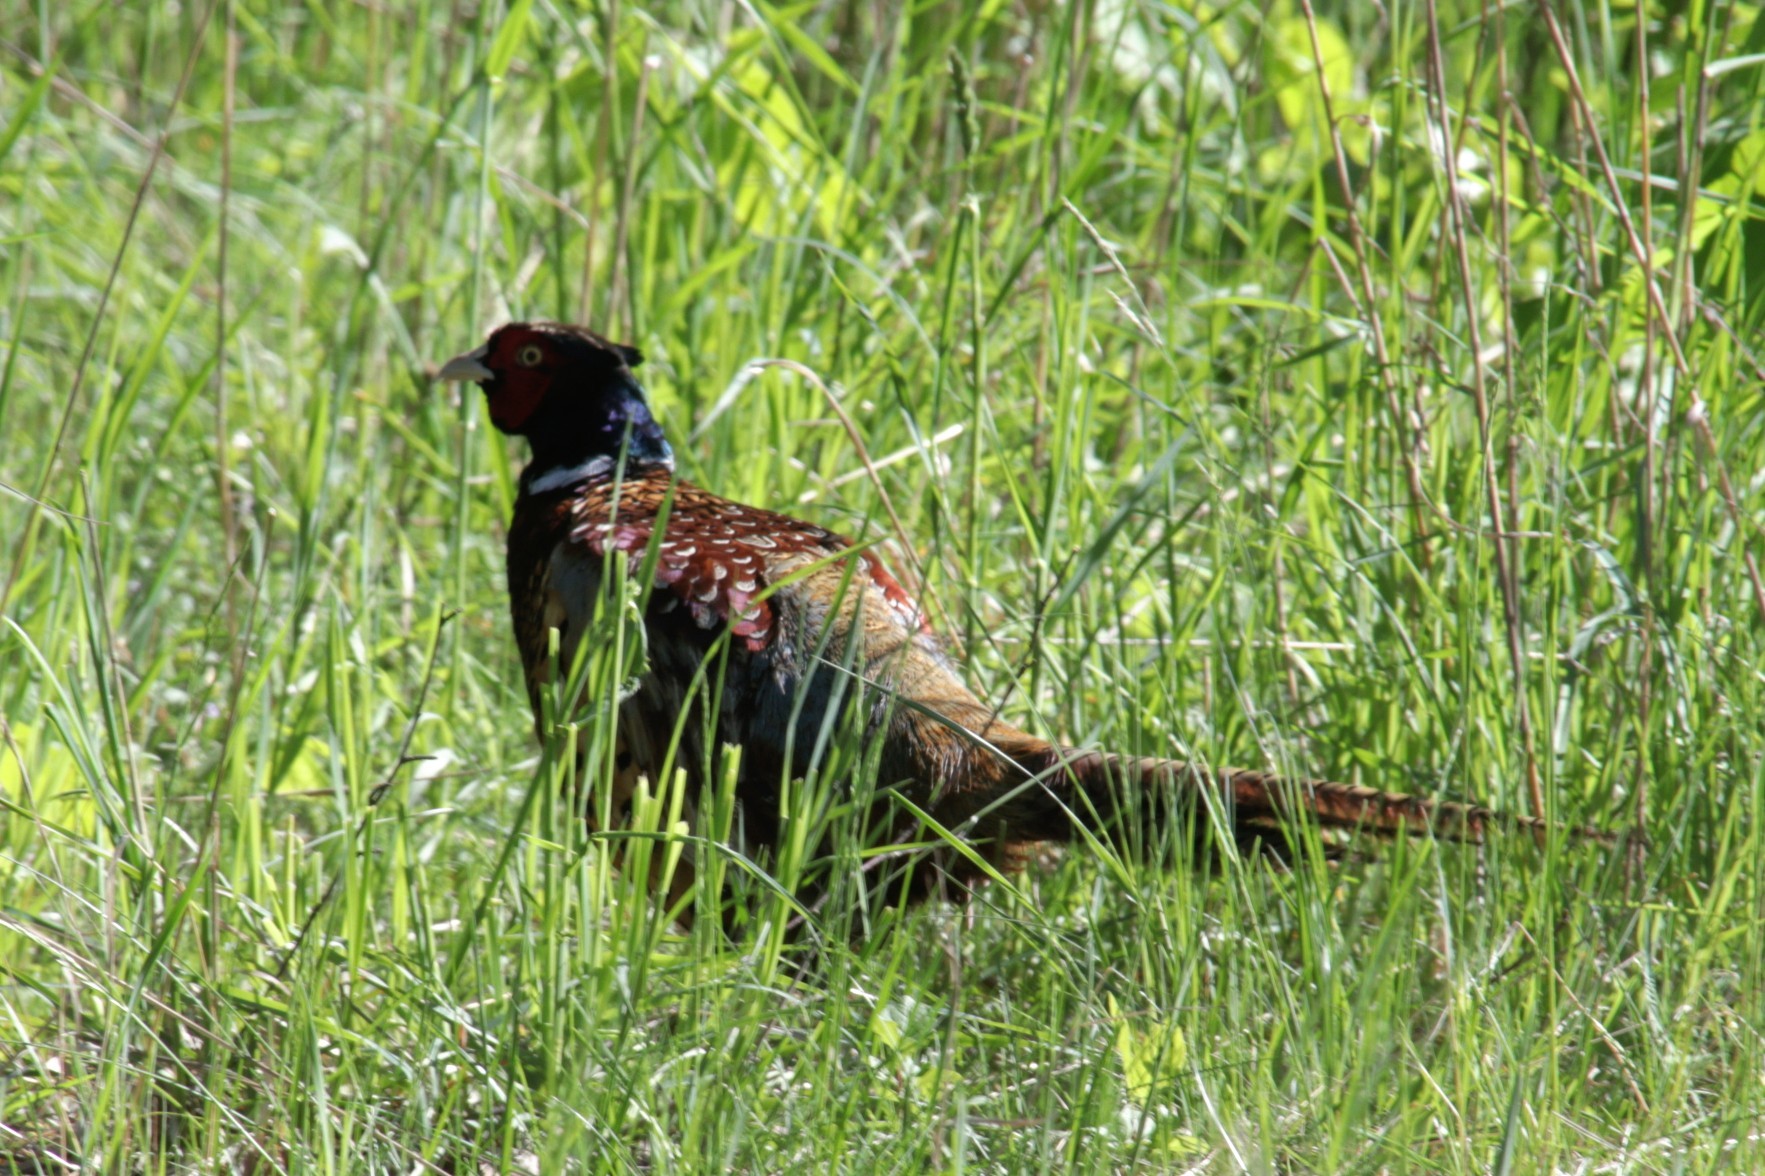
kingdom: Animalia
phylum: Chordata
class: Aves
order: Galliformes
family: Phasianidae
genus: Phasianus
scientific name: Phasianus colchicus
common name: Common pheasant
